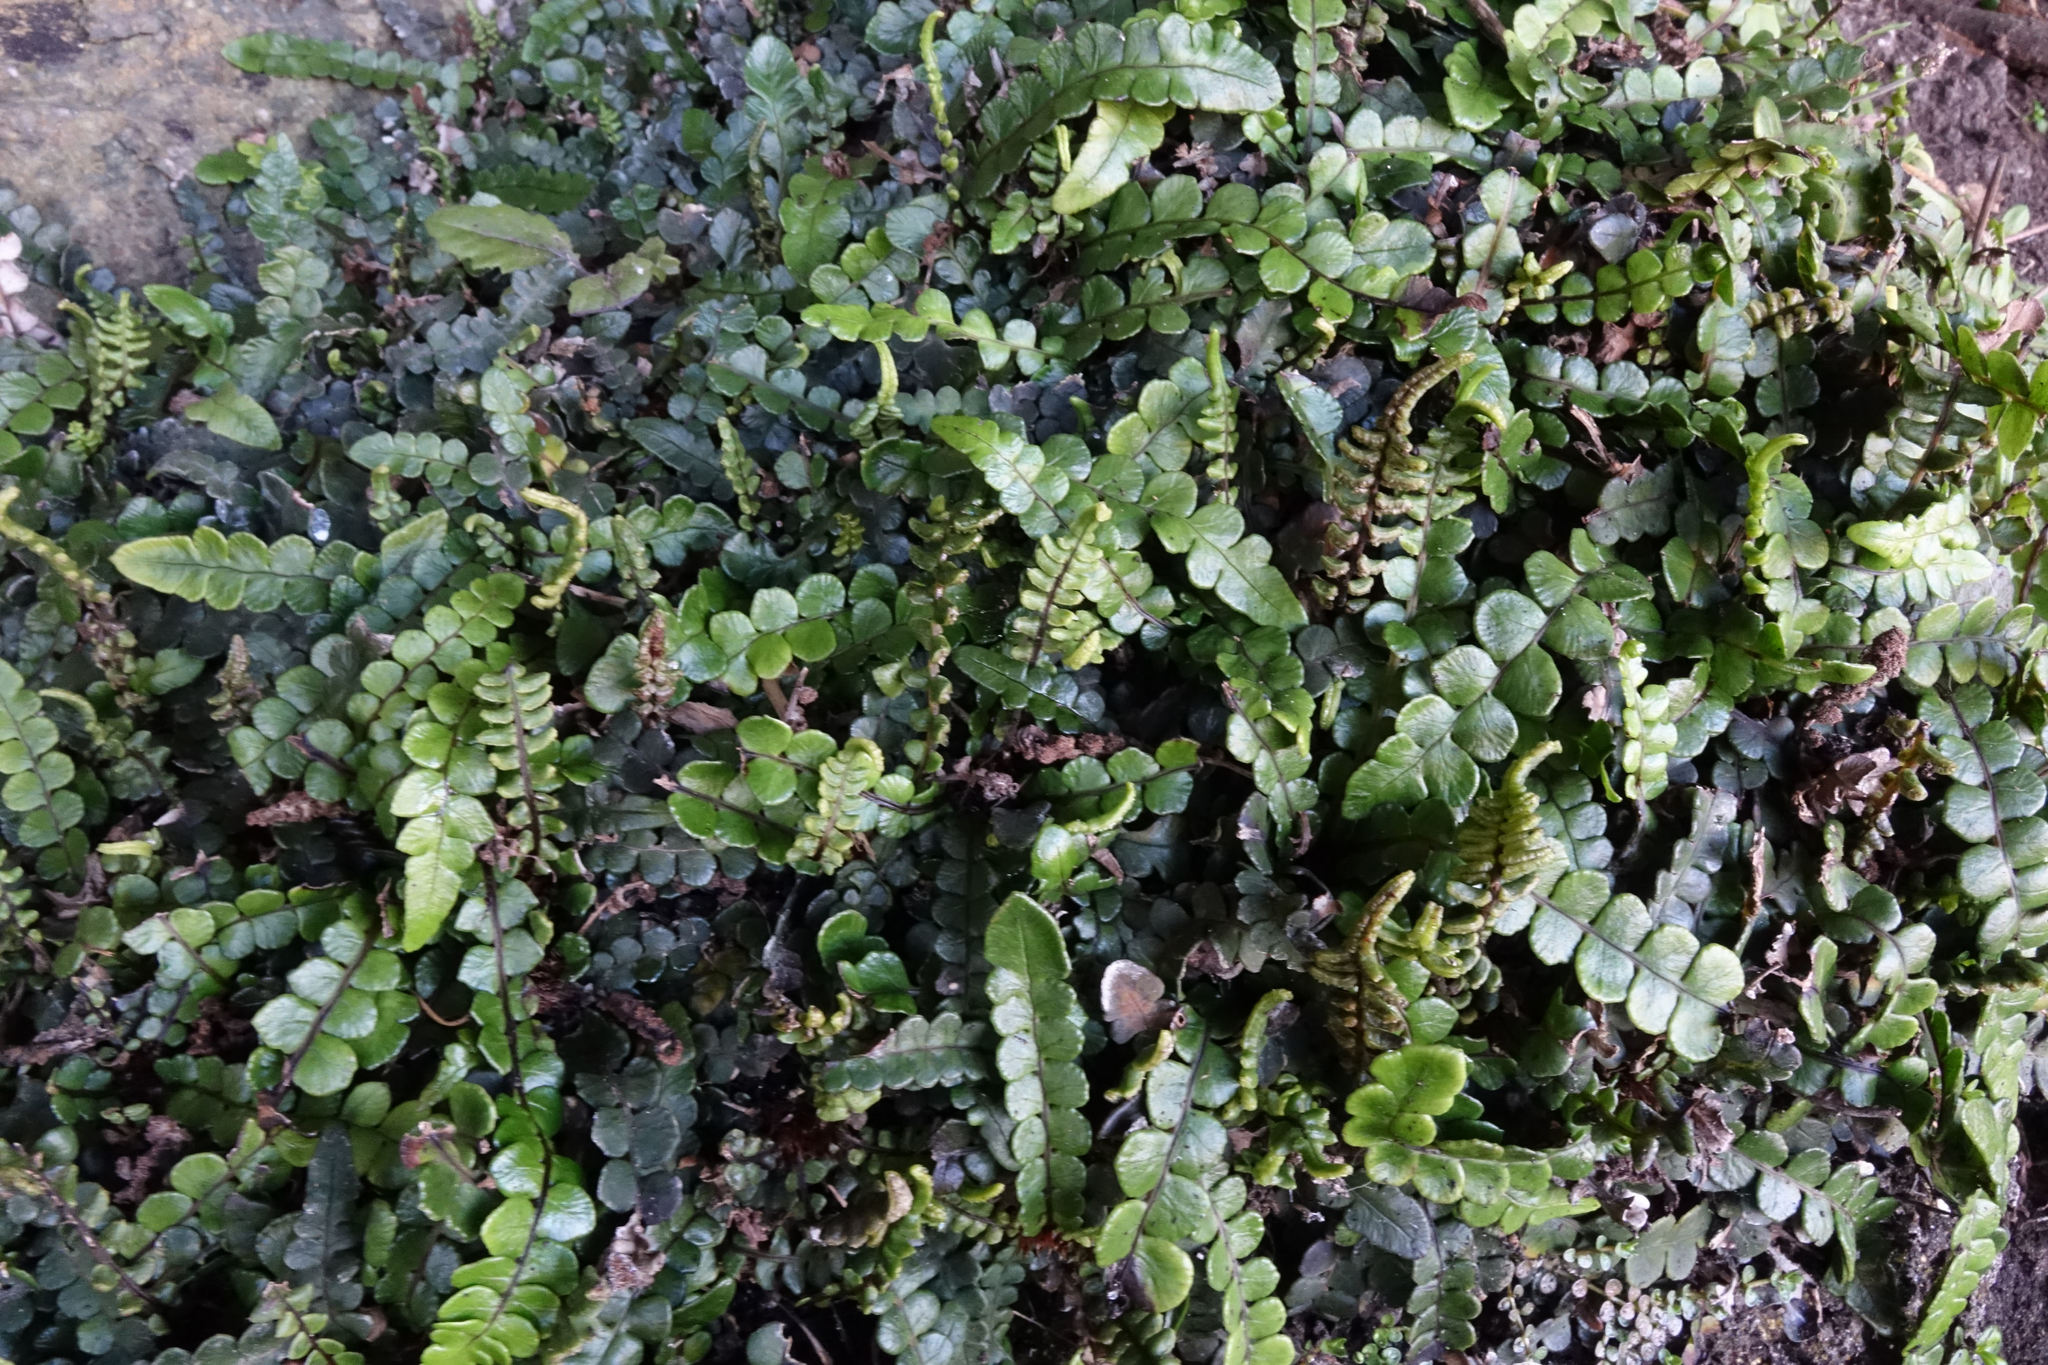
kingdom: Plantae
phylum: Tracheophyta
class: Polypodiopsida
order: Polypodiales
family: Blechnaceae
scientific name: Blechnaceae
